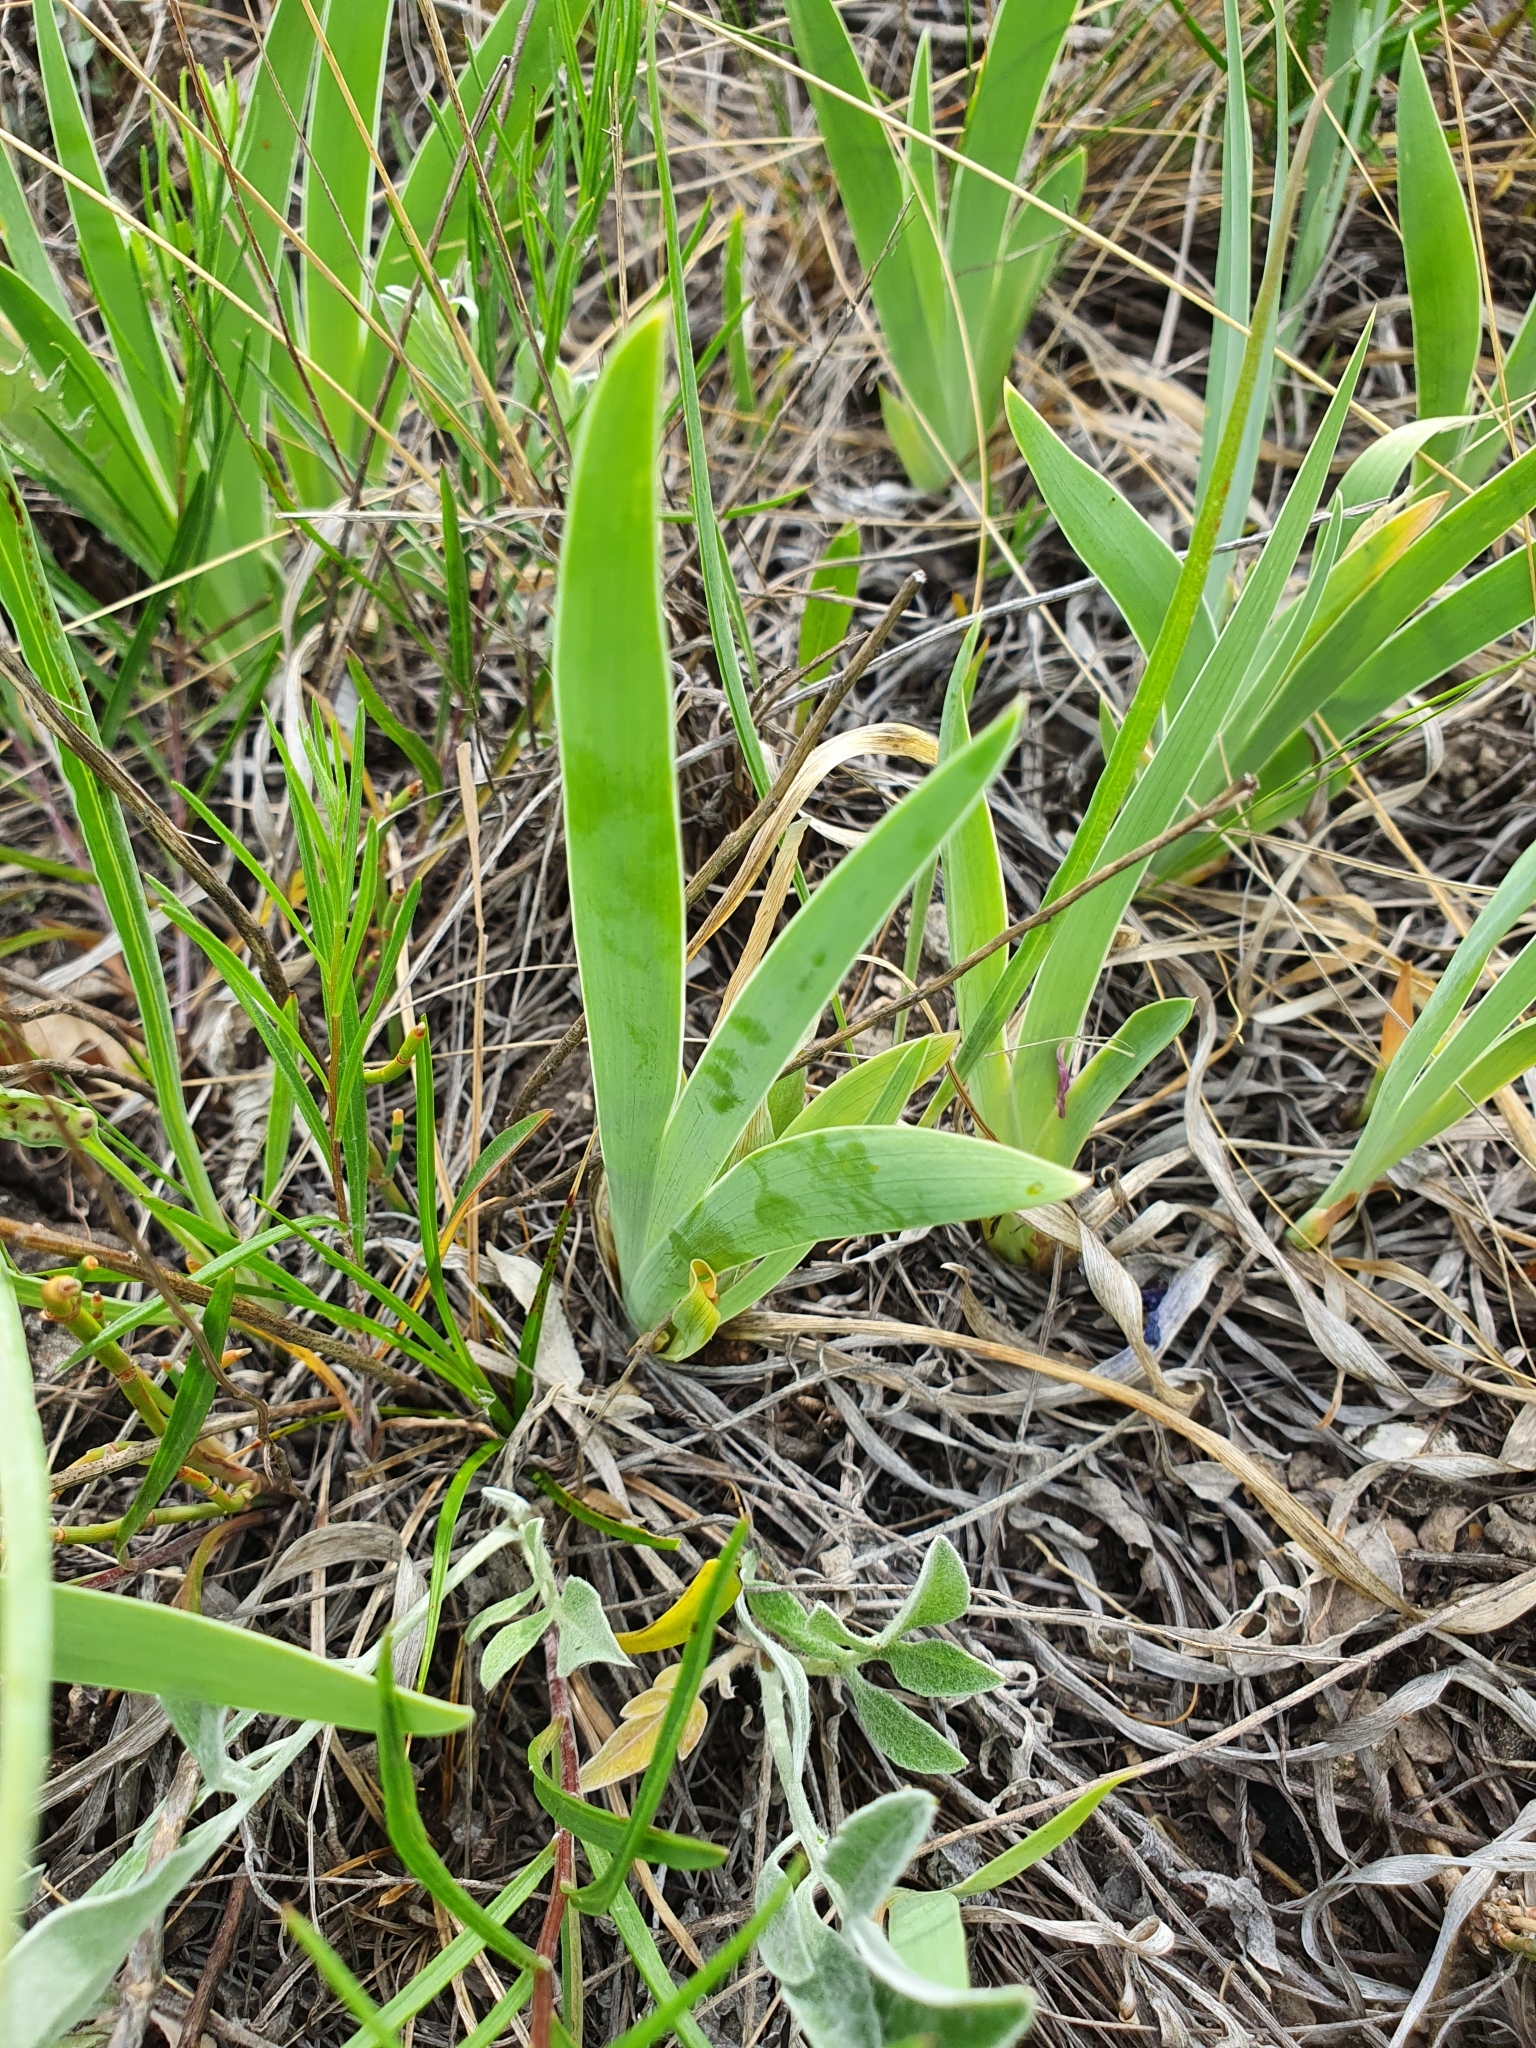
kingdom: Plantae
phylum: Tracheophyta
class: Liliopsida
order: Asparagales
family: Iridaceae
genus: Iris
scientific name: Iris pumila
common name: Dwarf iris
